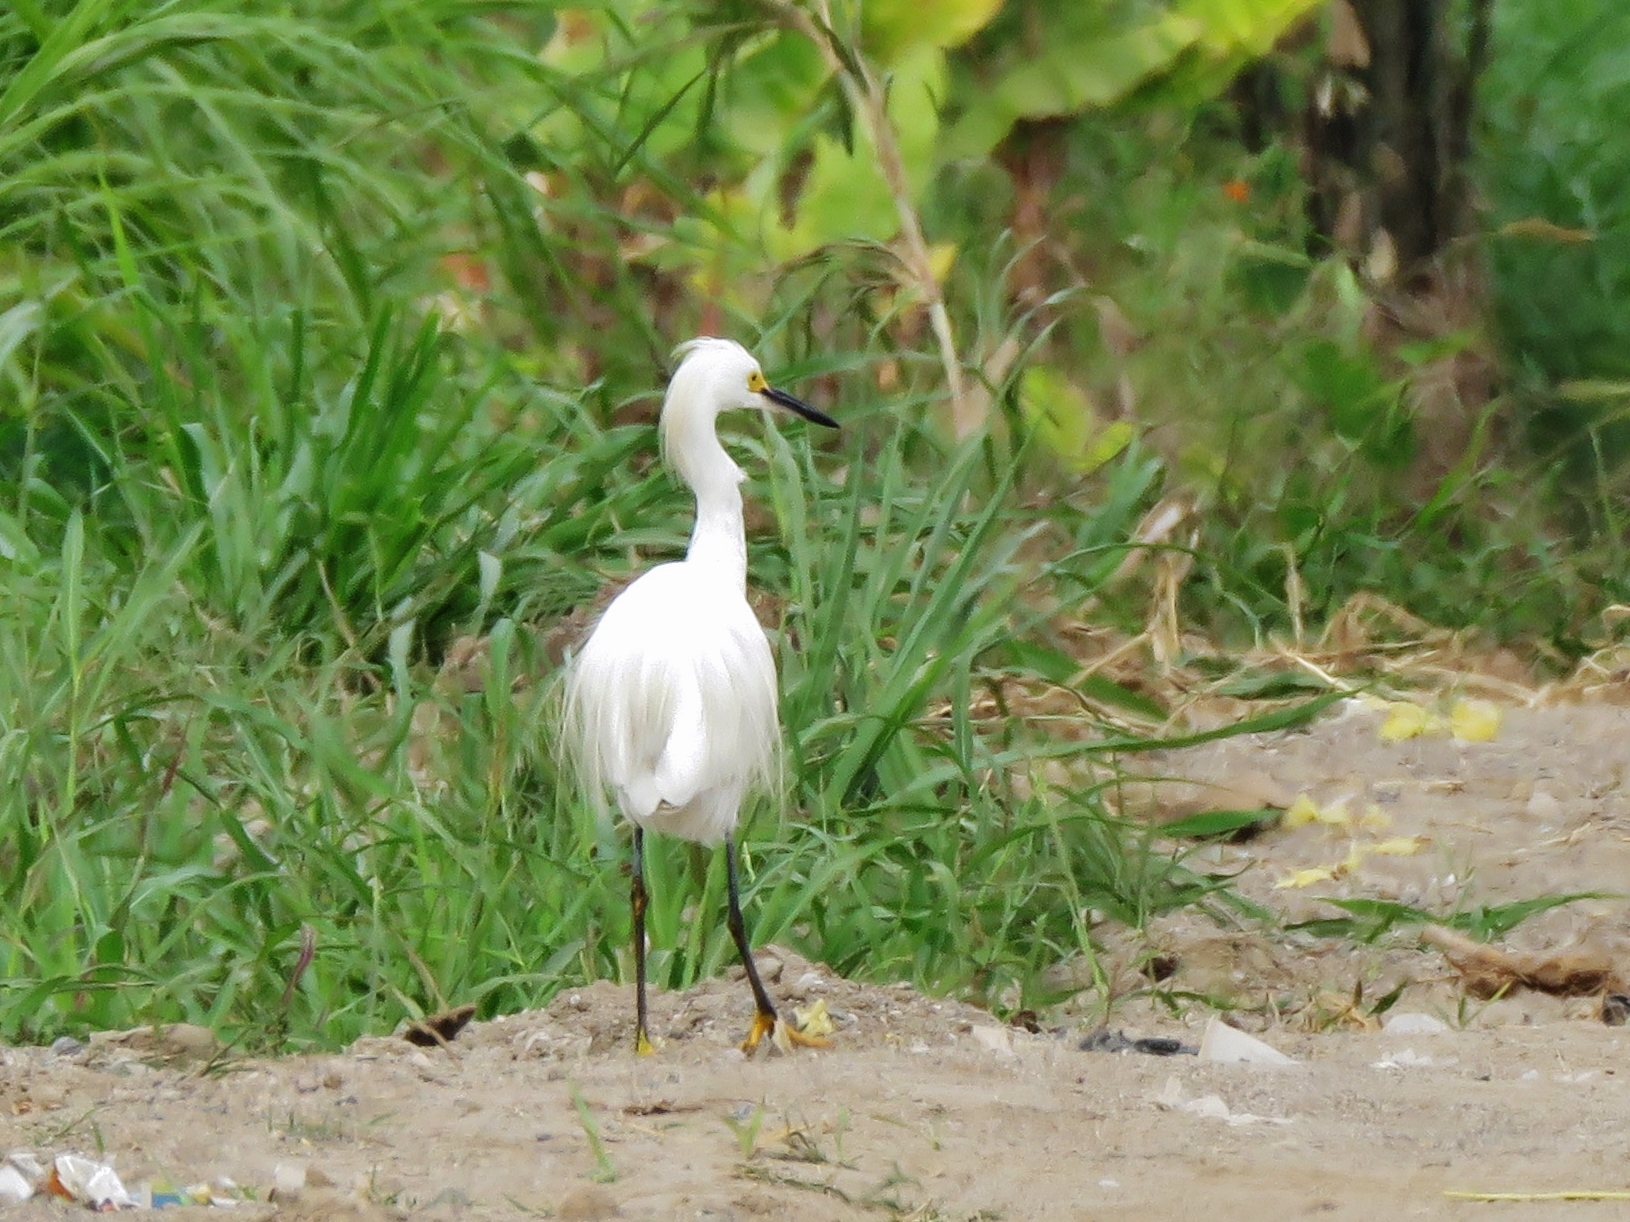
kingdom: Animalia
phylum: Chordata
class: Aves
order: Pelecaniformes
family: Ardeidae
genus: Egretta
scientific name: Egretta thula
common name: Snowy egret
